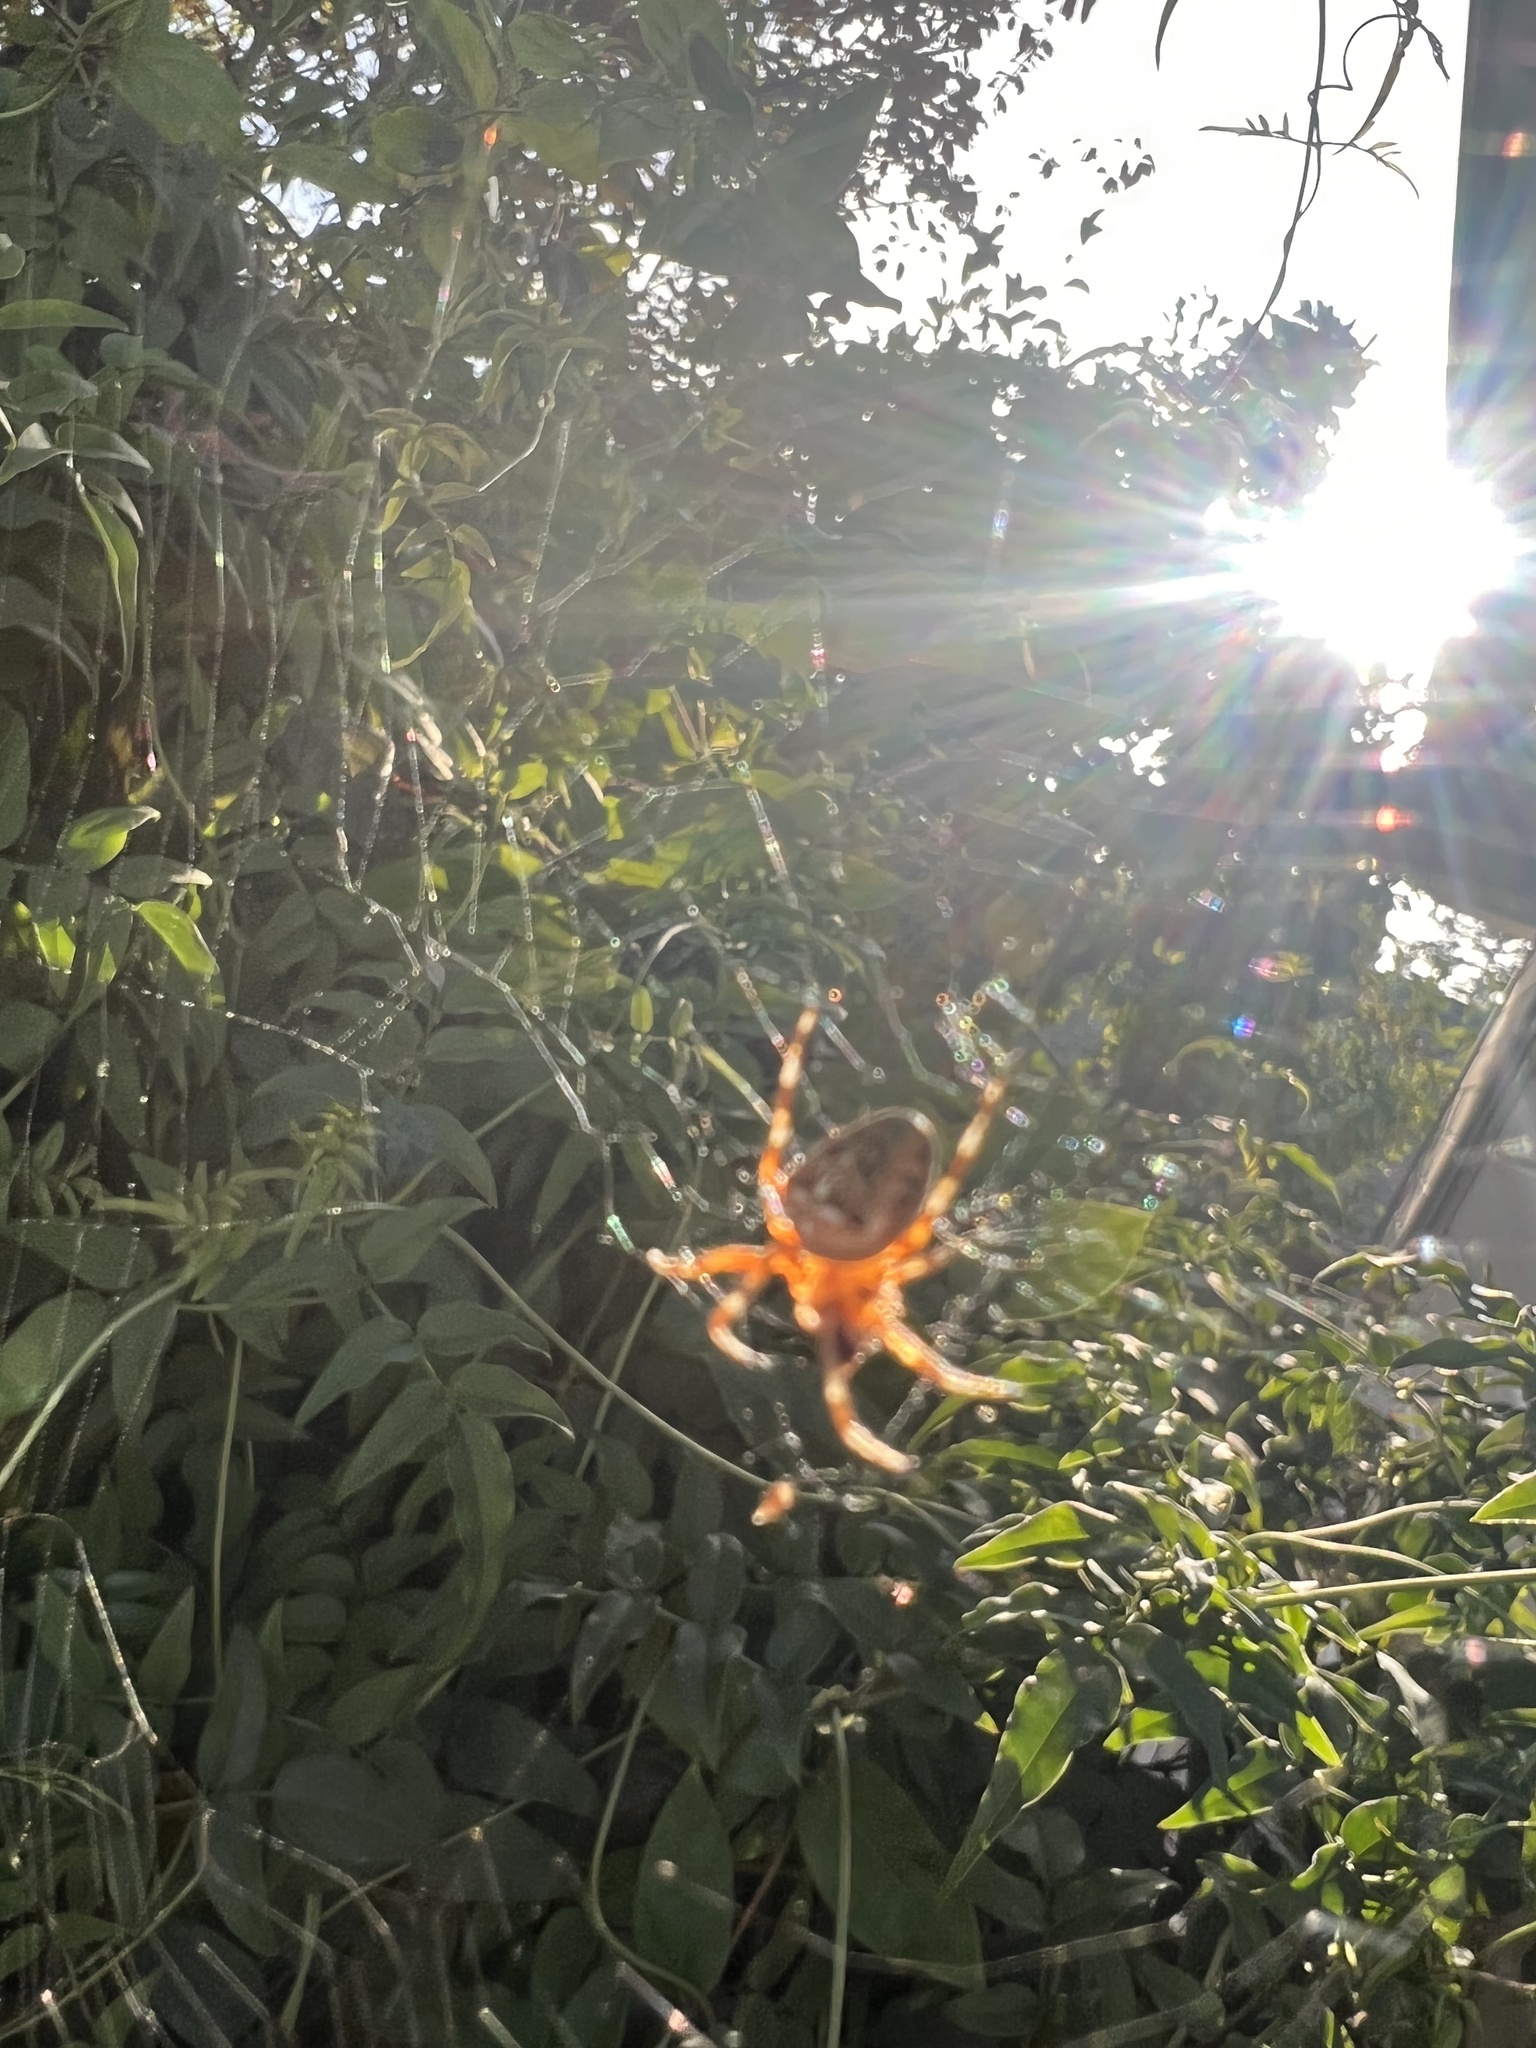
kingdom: Animalia
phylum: Arthropoda
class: Arachnida
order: Araneae
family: Araneidae
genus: Araneus
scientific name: Araneus diadematus
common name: Cross orbweaver
